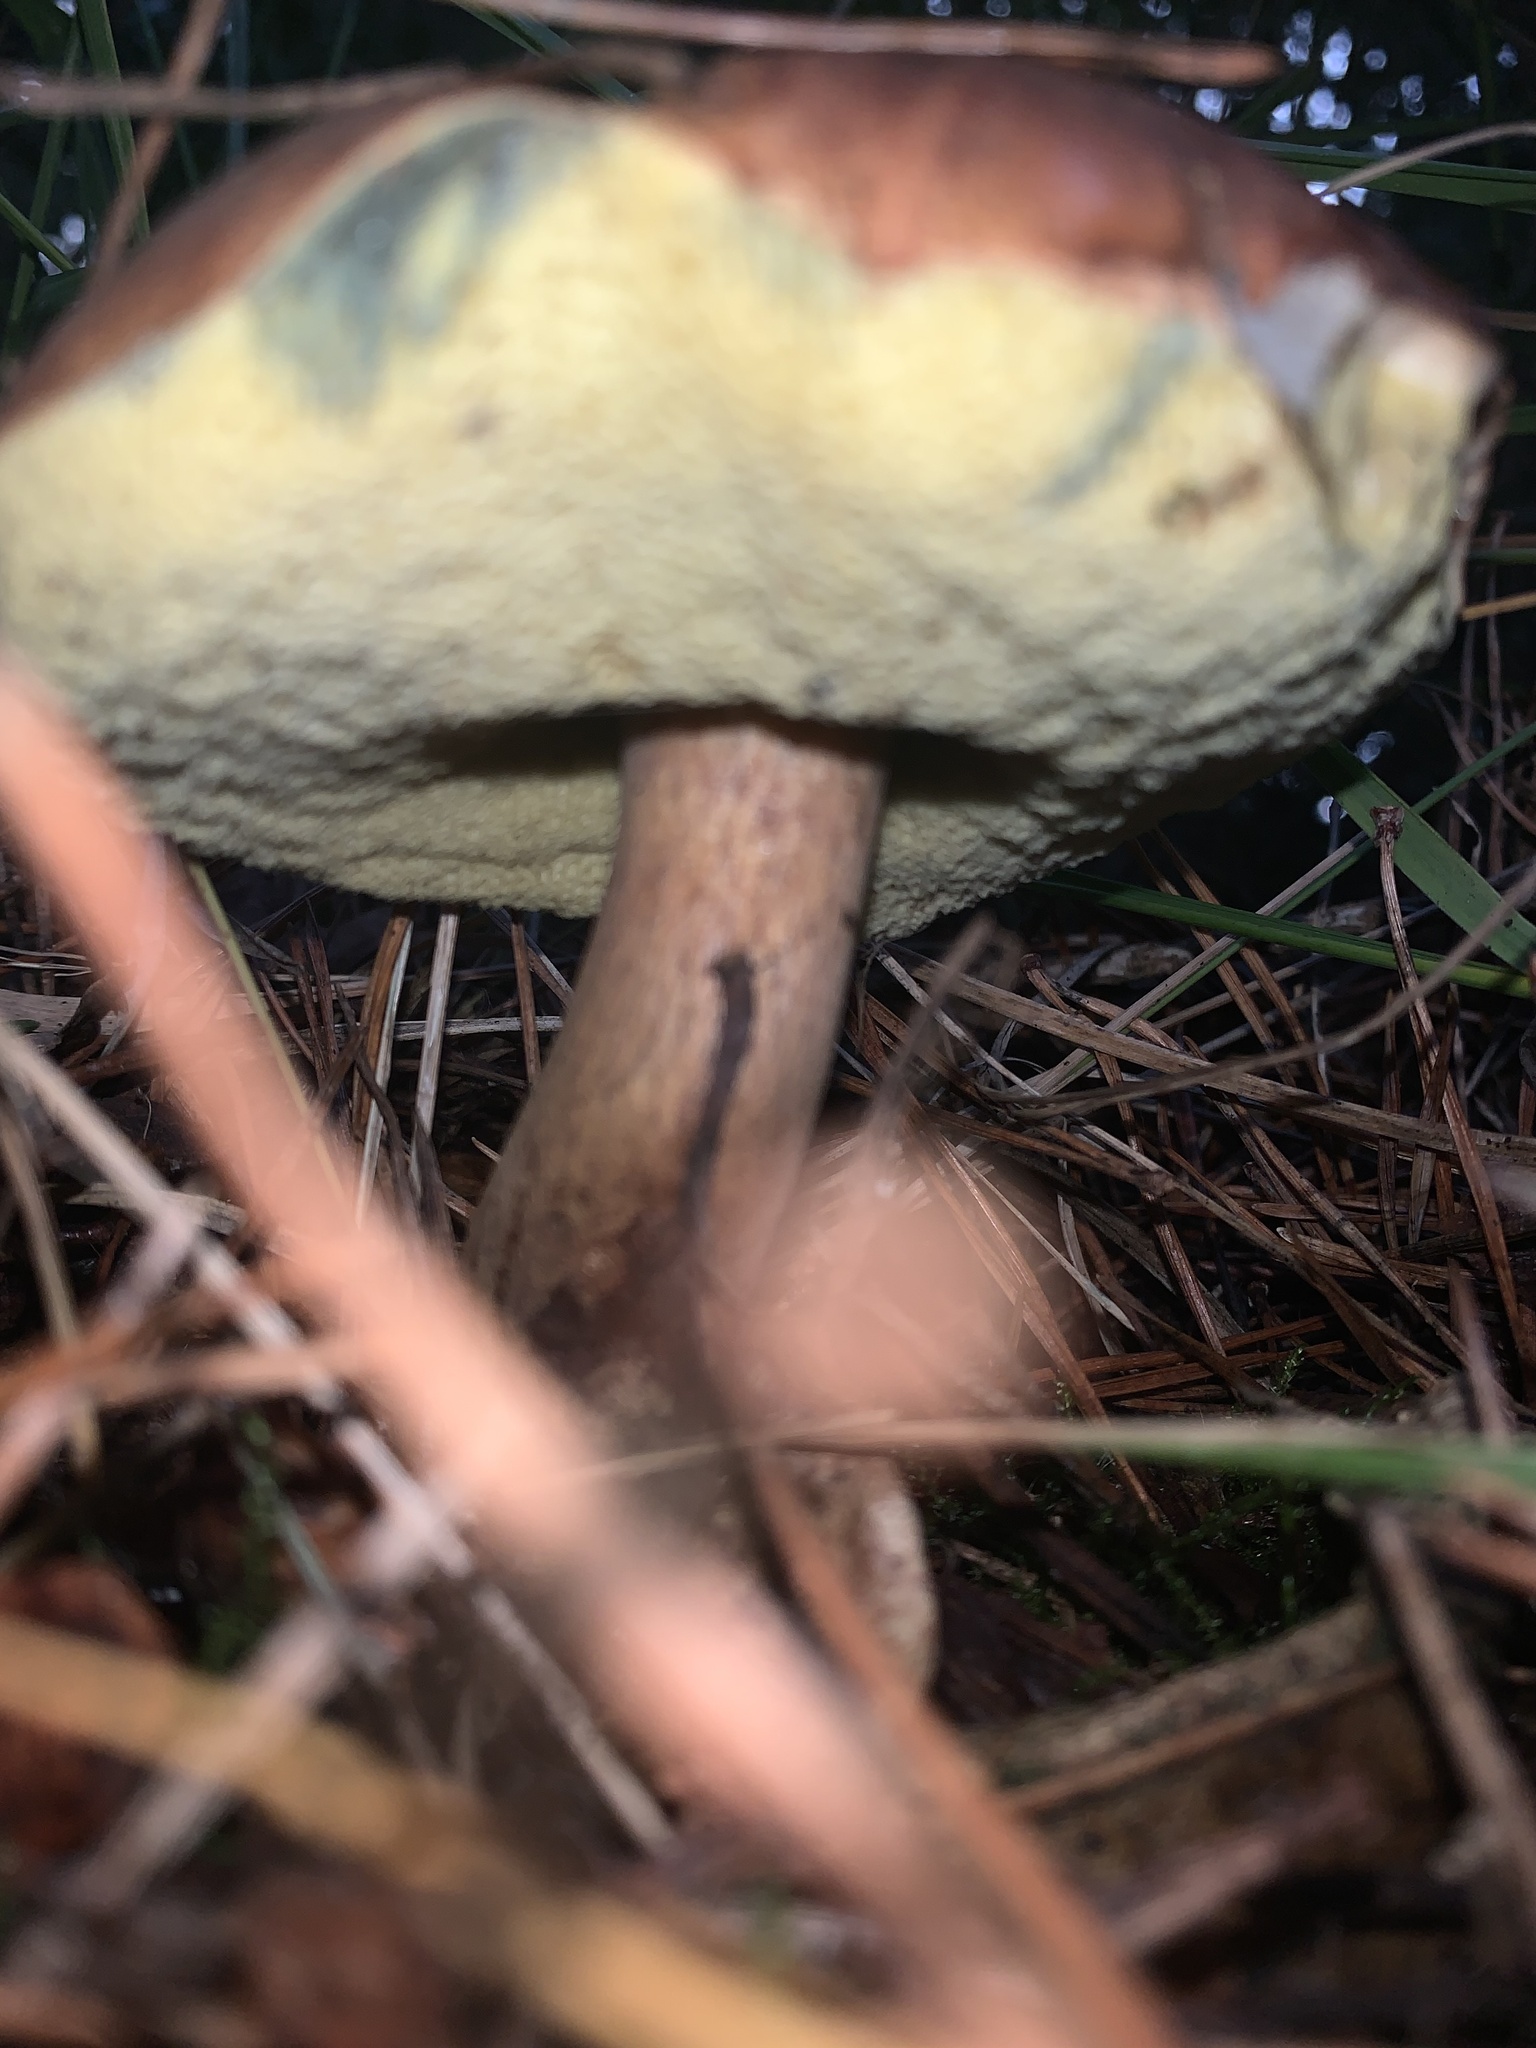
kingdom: Fungi
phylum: Basidiomycota
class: Agaricomycetes
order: Boletales
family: Boletaceae
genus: Imleria
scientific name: Imleria badia
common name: Bay bolete
